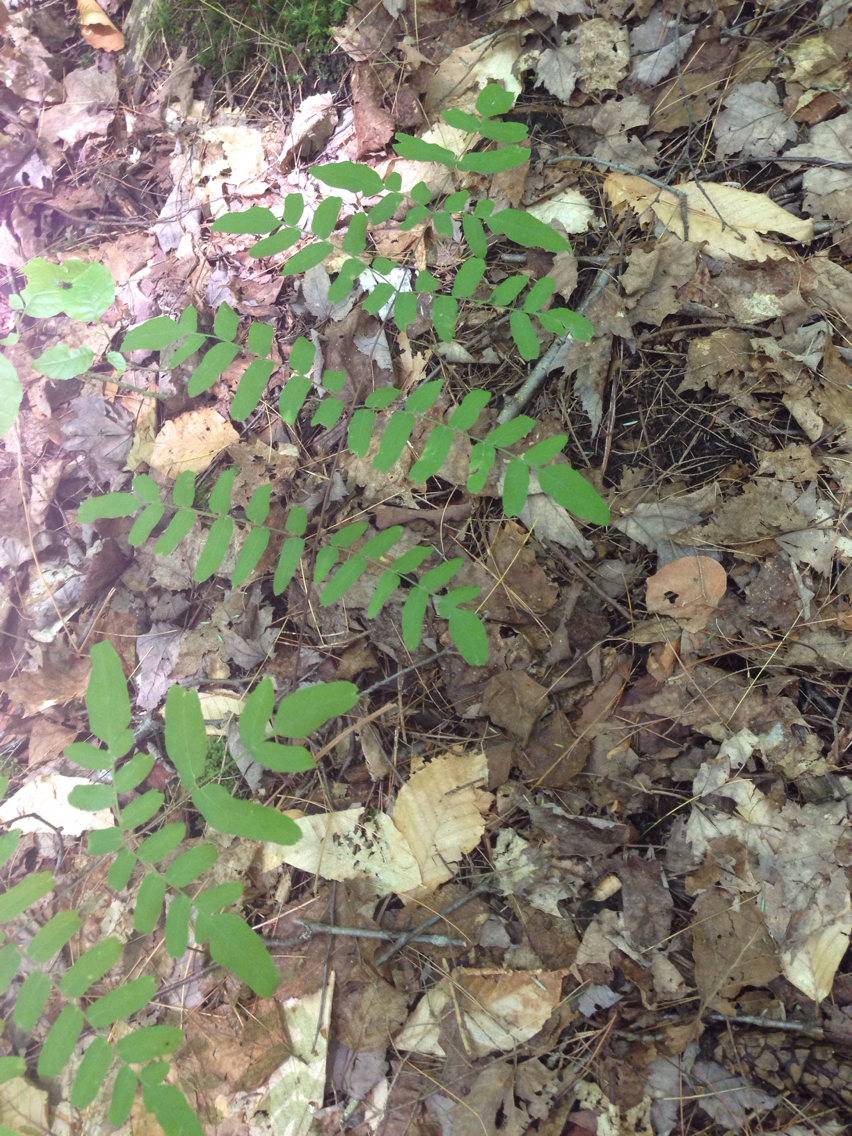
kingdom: Plantae
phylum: Tracheophyta
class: Polypodiopsida
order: Osmundales
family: Osmundaceae
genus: Osmunda
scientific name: Osmunda spectabilis
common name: American royal fern
